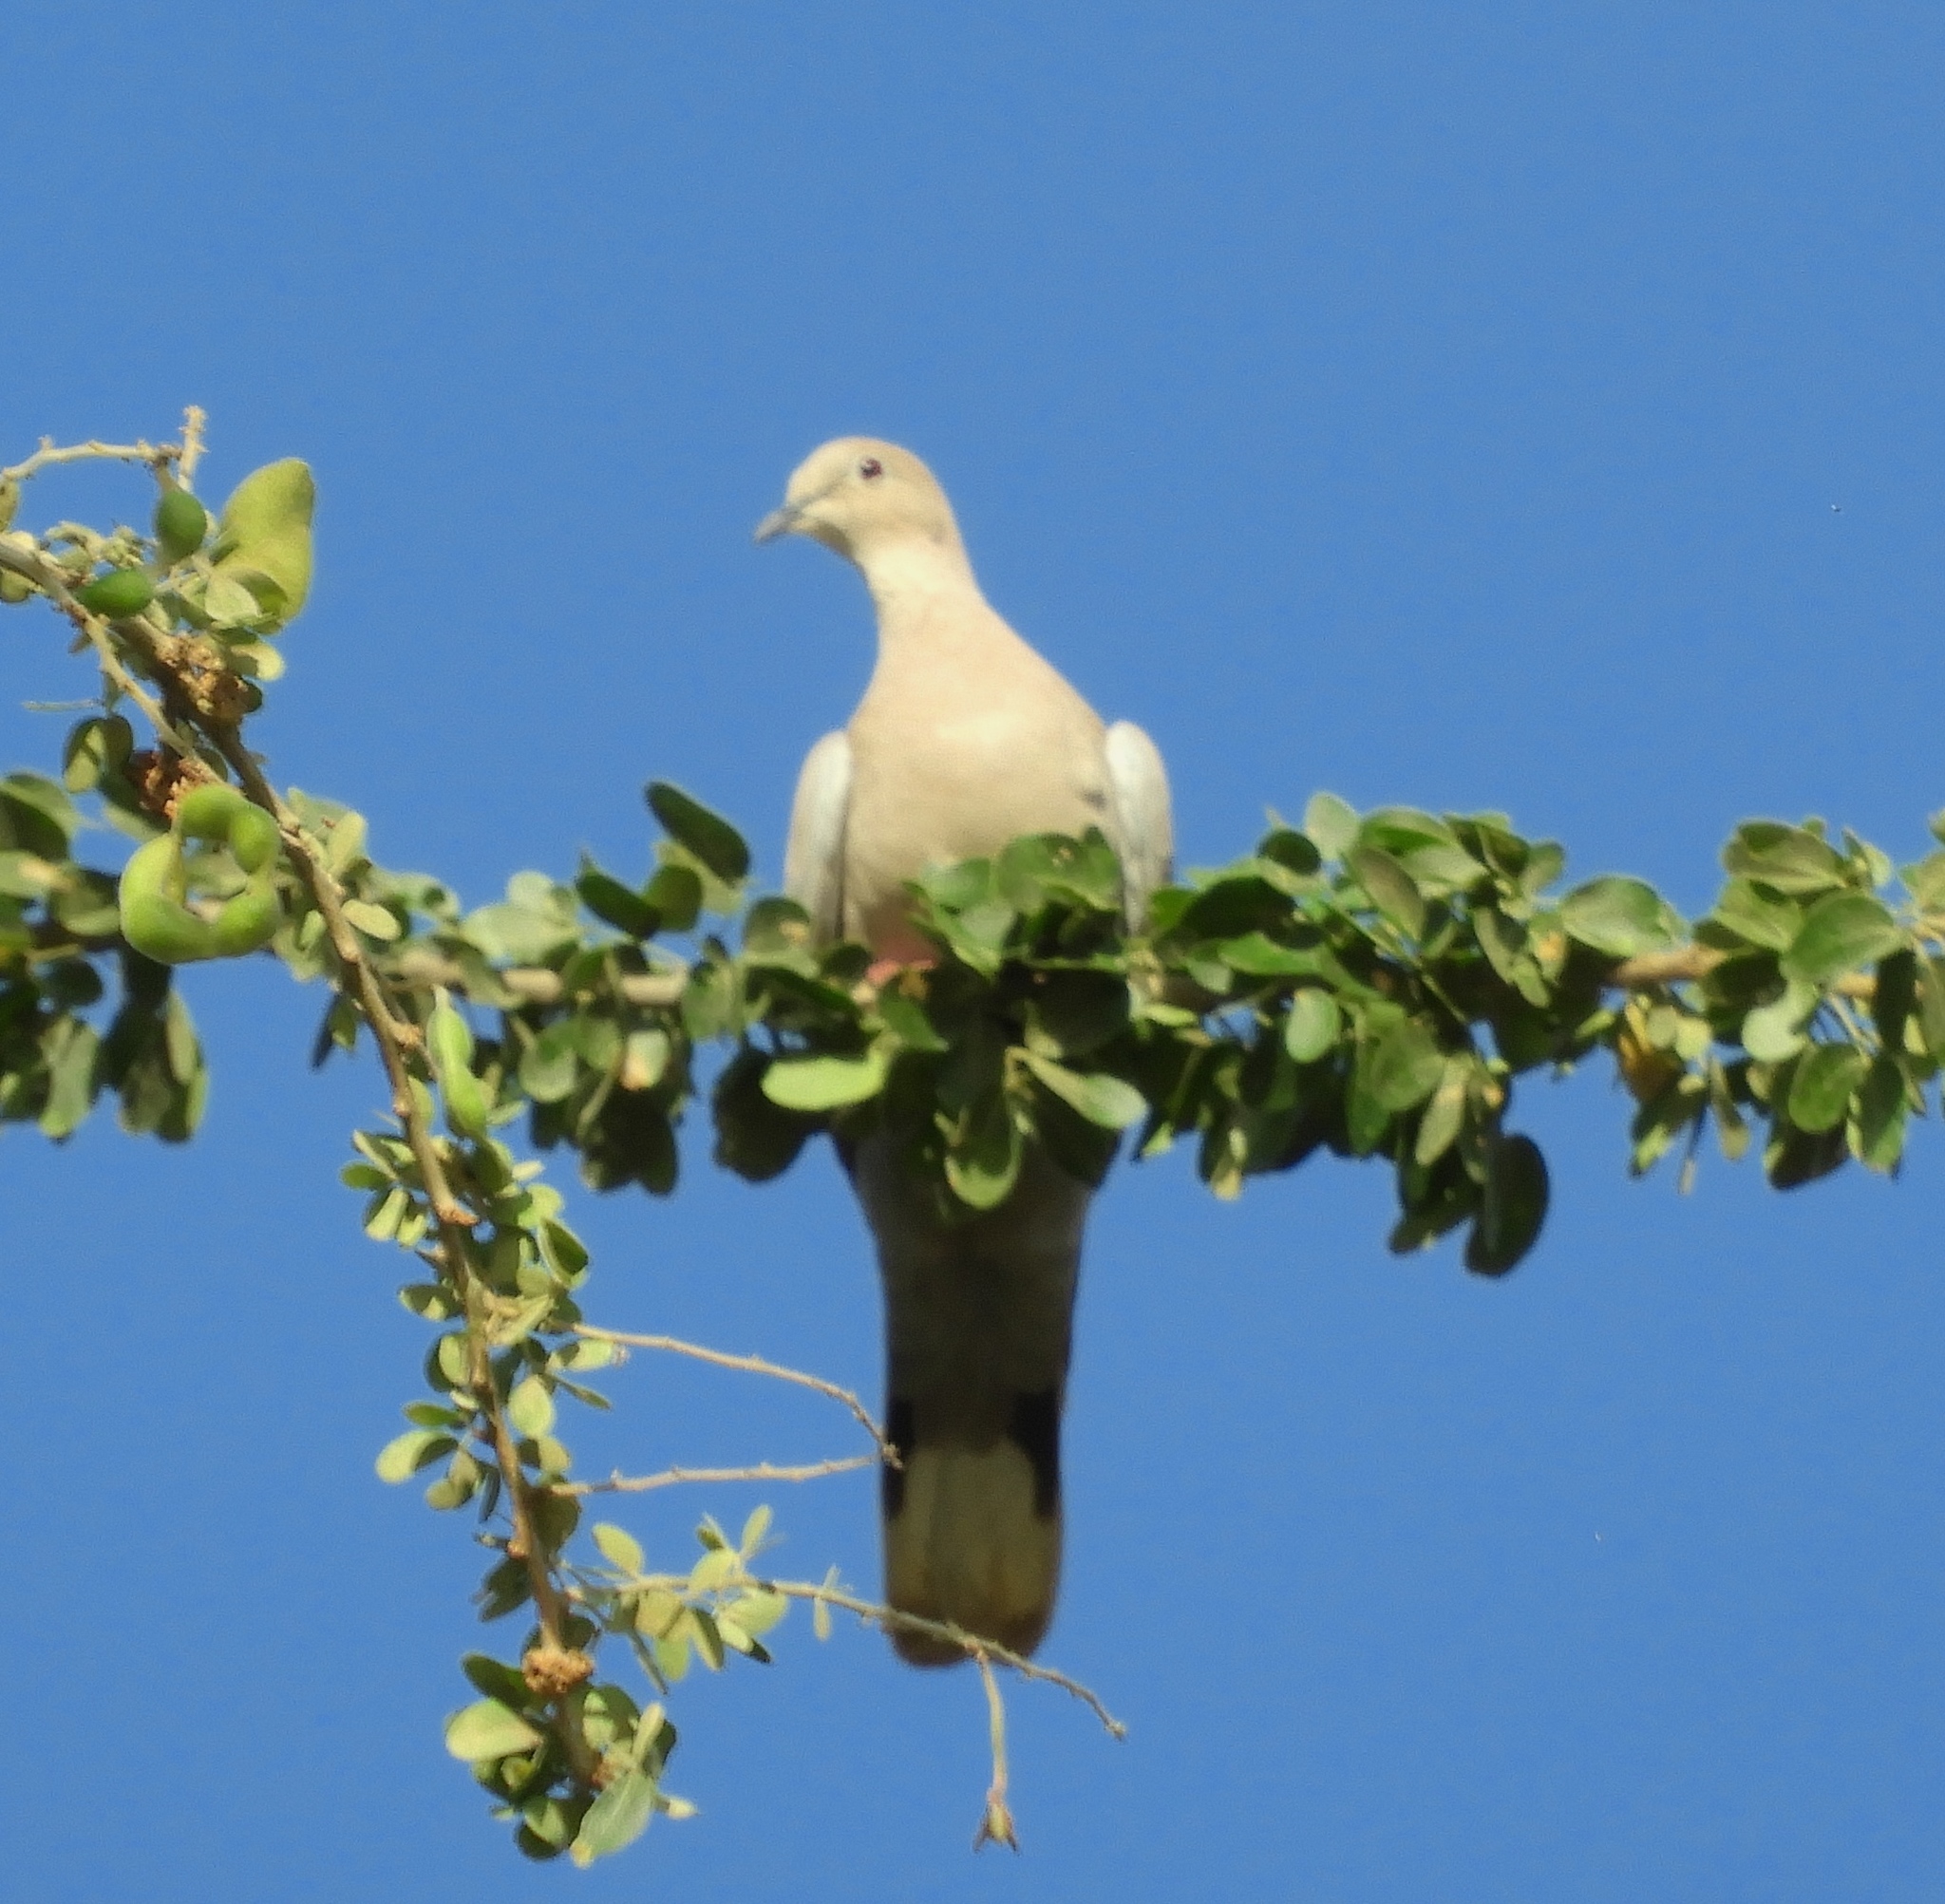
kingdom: Animalia
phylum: Chordata
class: Aves
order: Columbiformes
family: Columbidae
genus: Streptopelia
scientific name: Streptopelia decaocto
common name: Eurasian collared dove
